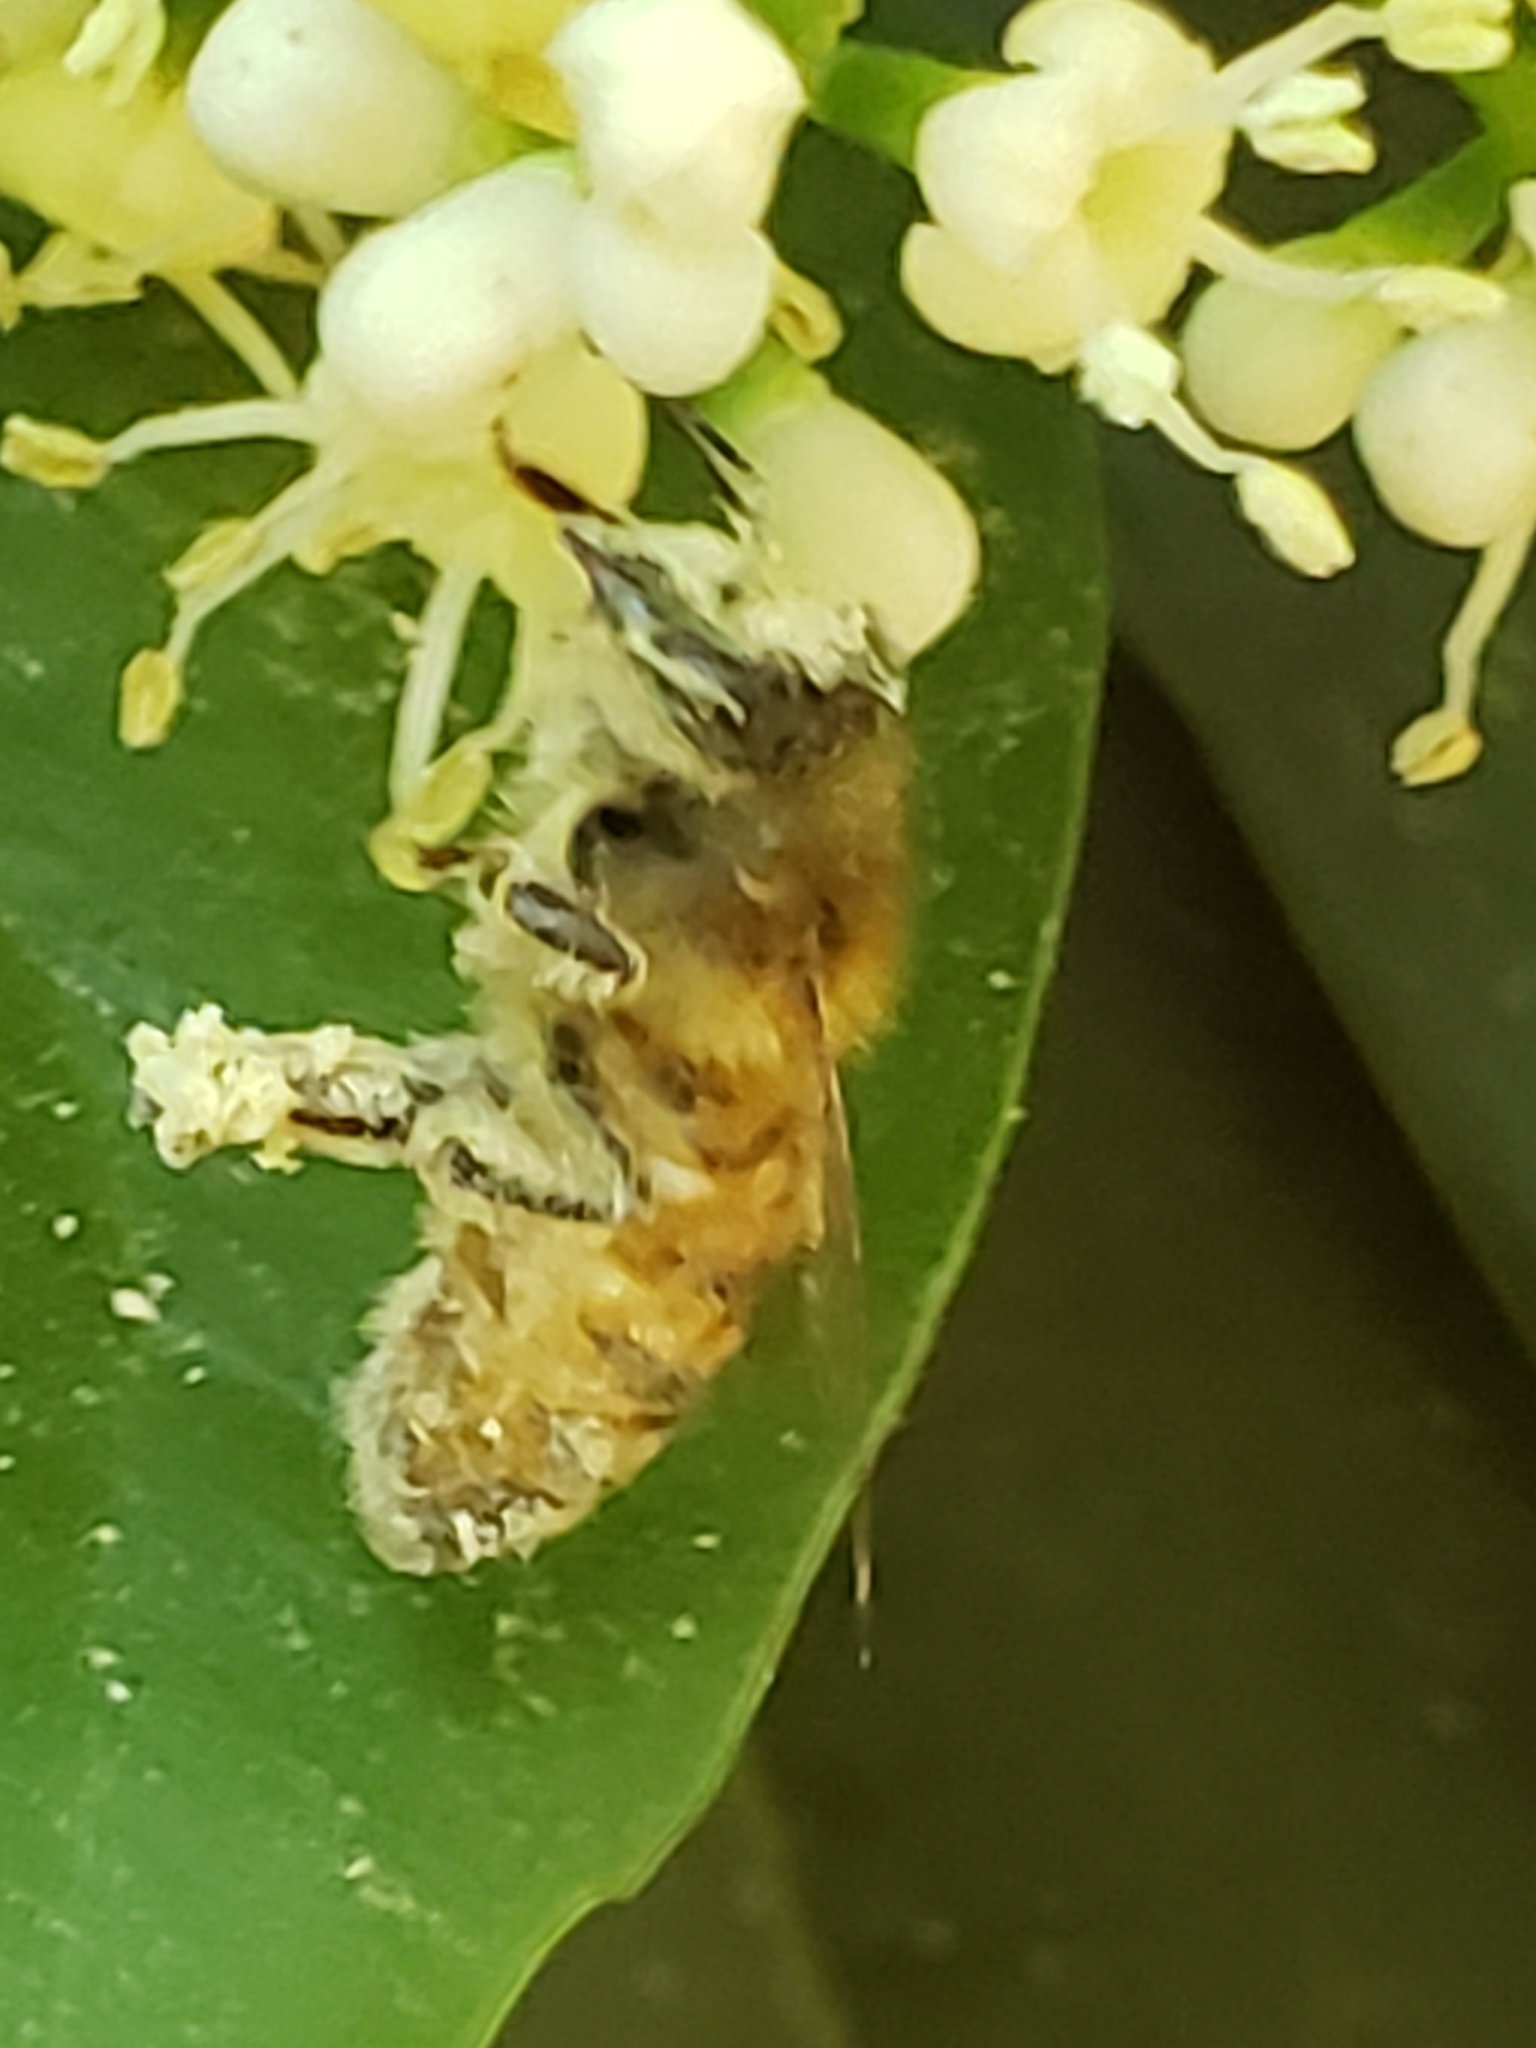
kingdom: Animalia
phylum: Arthropoda
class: Insecta
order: Hymenoptera
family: Apidae
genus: Apis
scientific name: Apis mellifera
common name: Honey bee
